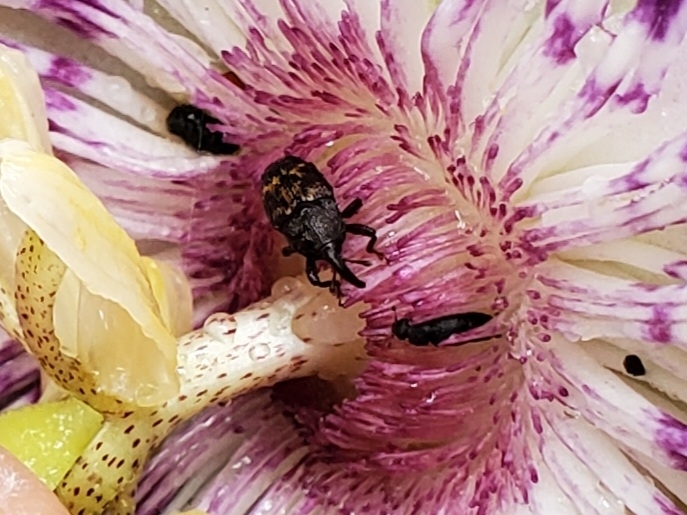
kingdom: Animalia
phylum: Arthropoda
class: Insecta
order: Coleoptera
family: Curculionidae
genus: Glyptobaris
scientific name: Glyptobaris lecontei
